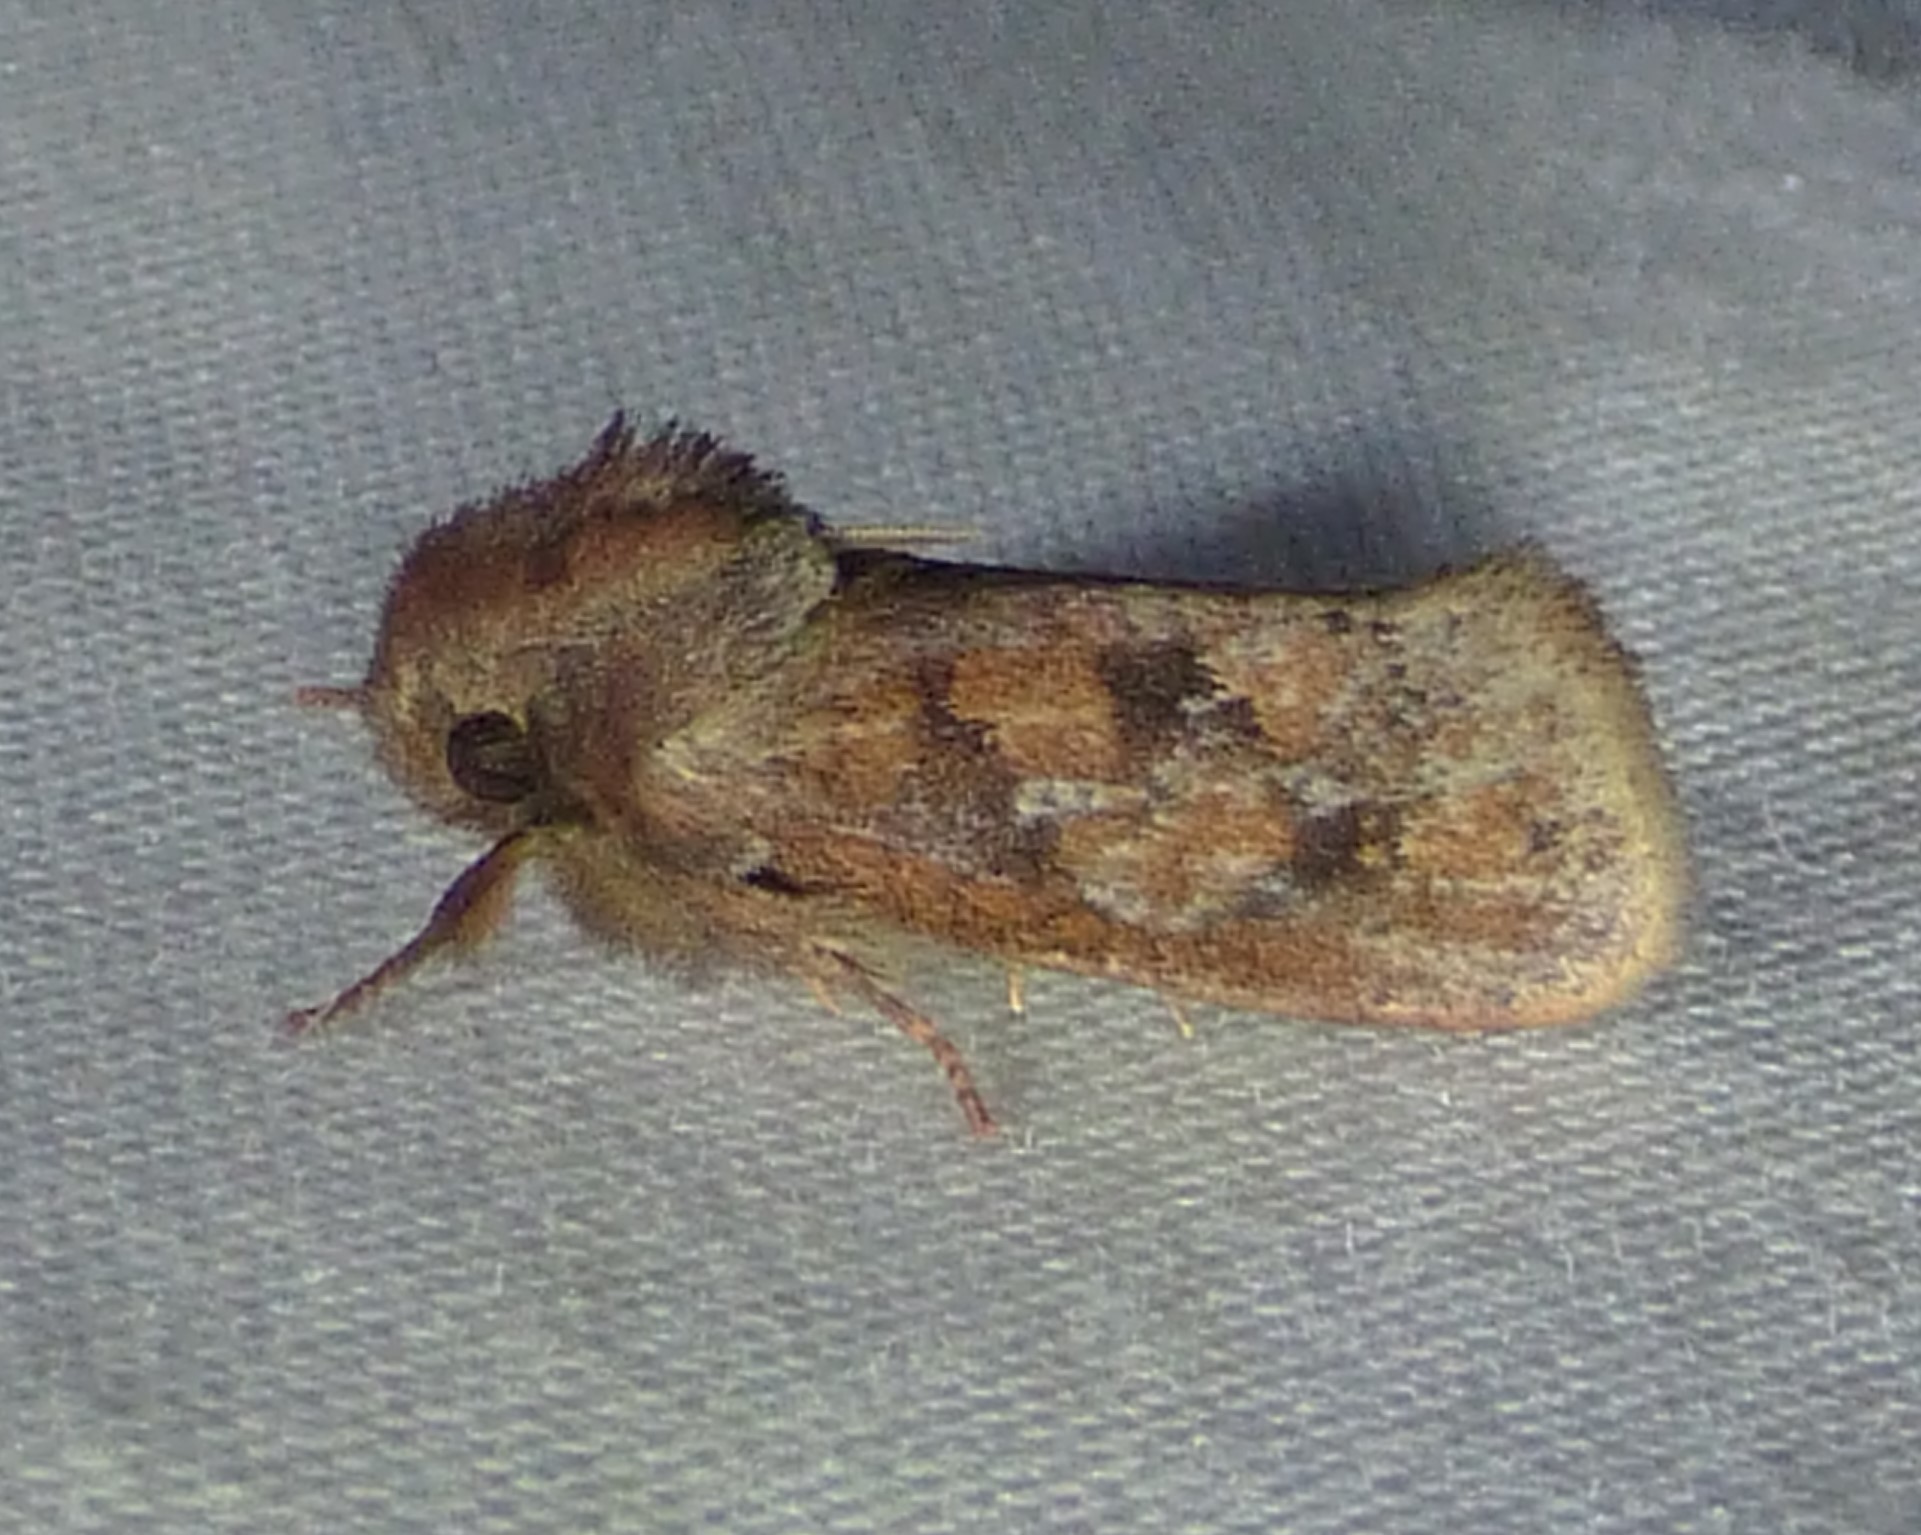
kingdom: Animalia
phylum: Arthropoda
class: Insecta
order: Lepidoptera
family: Tineidae
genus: Acrolophus
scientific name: Acrolophus plumifrontella
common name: Eastern grass tubeworm moth
